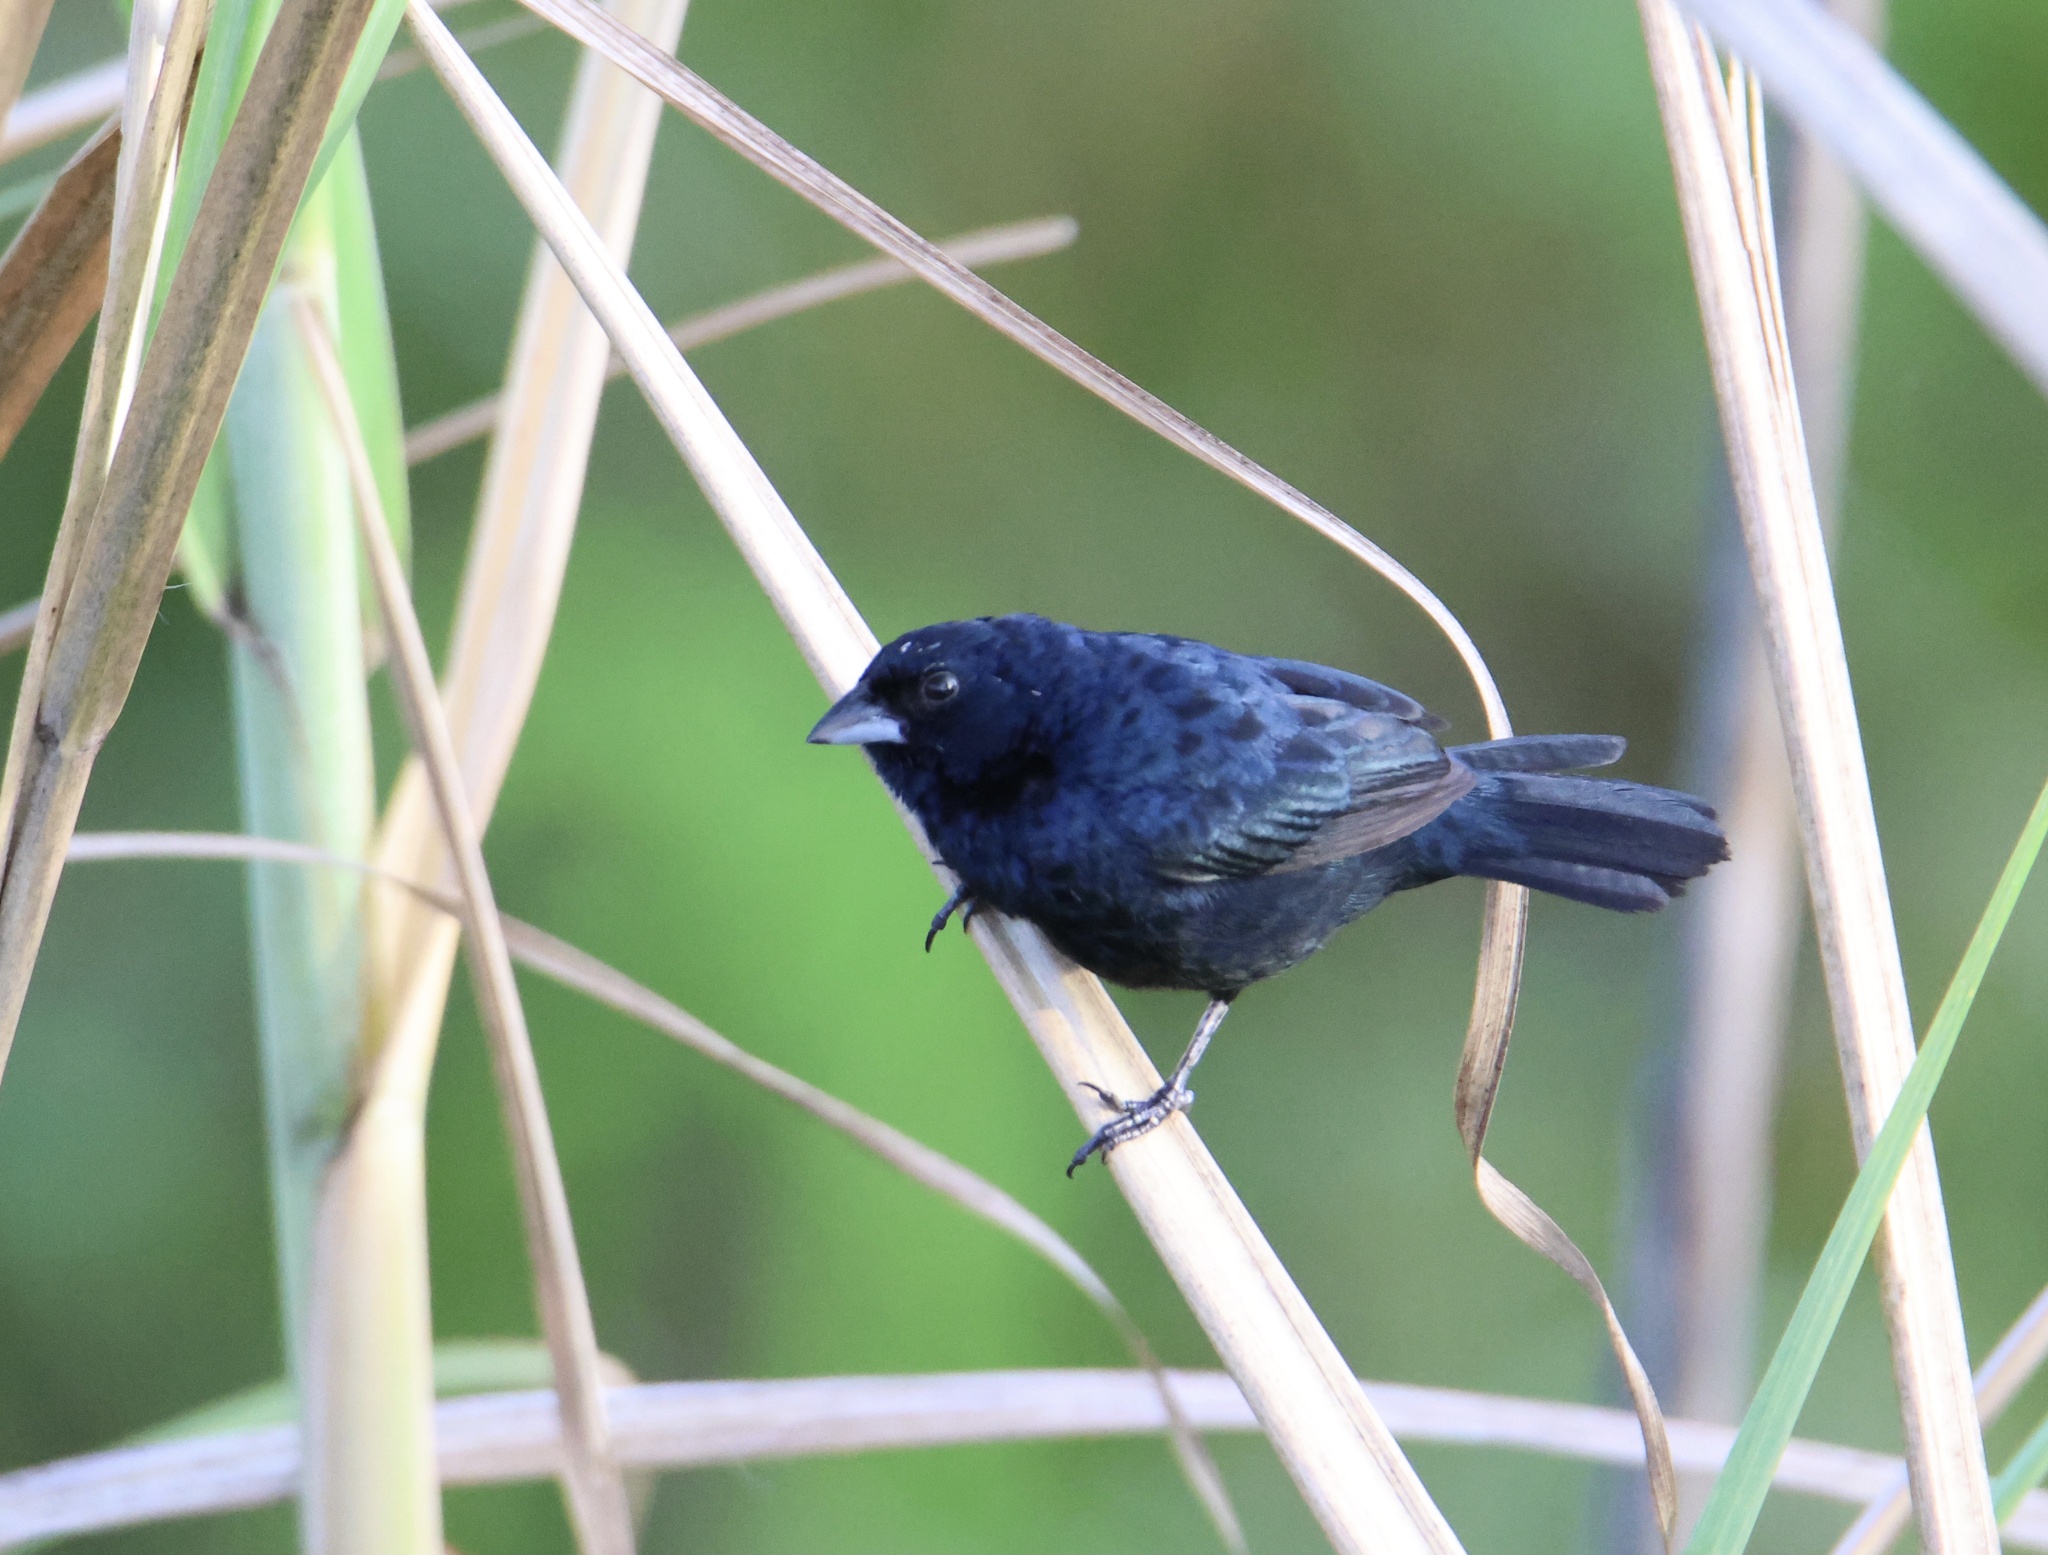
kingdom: Animalia
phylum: Chordata
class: Aves
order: Passeriformes
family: Thraupidae
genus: Volatinia
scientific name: Volatinia jacarina
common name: Blue-black grassquit
